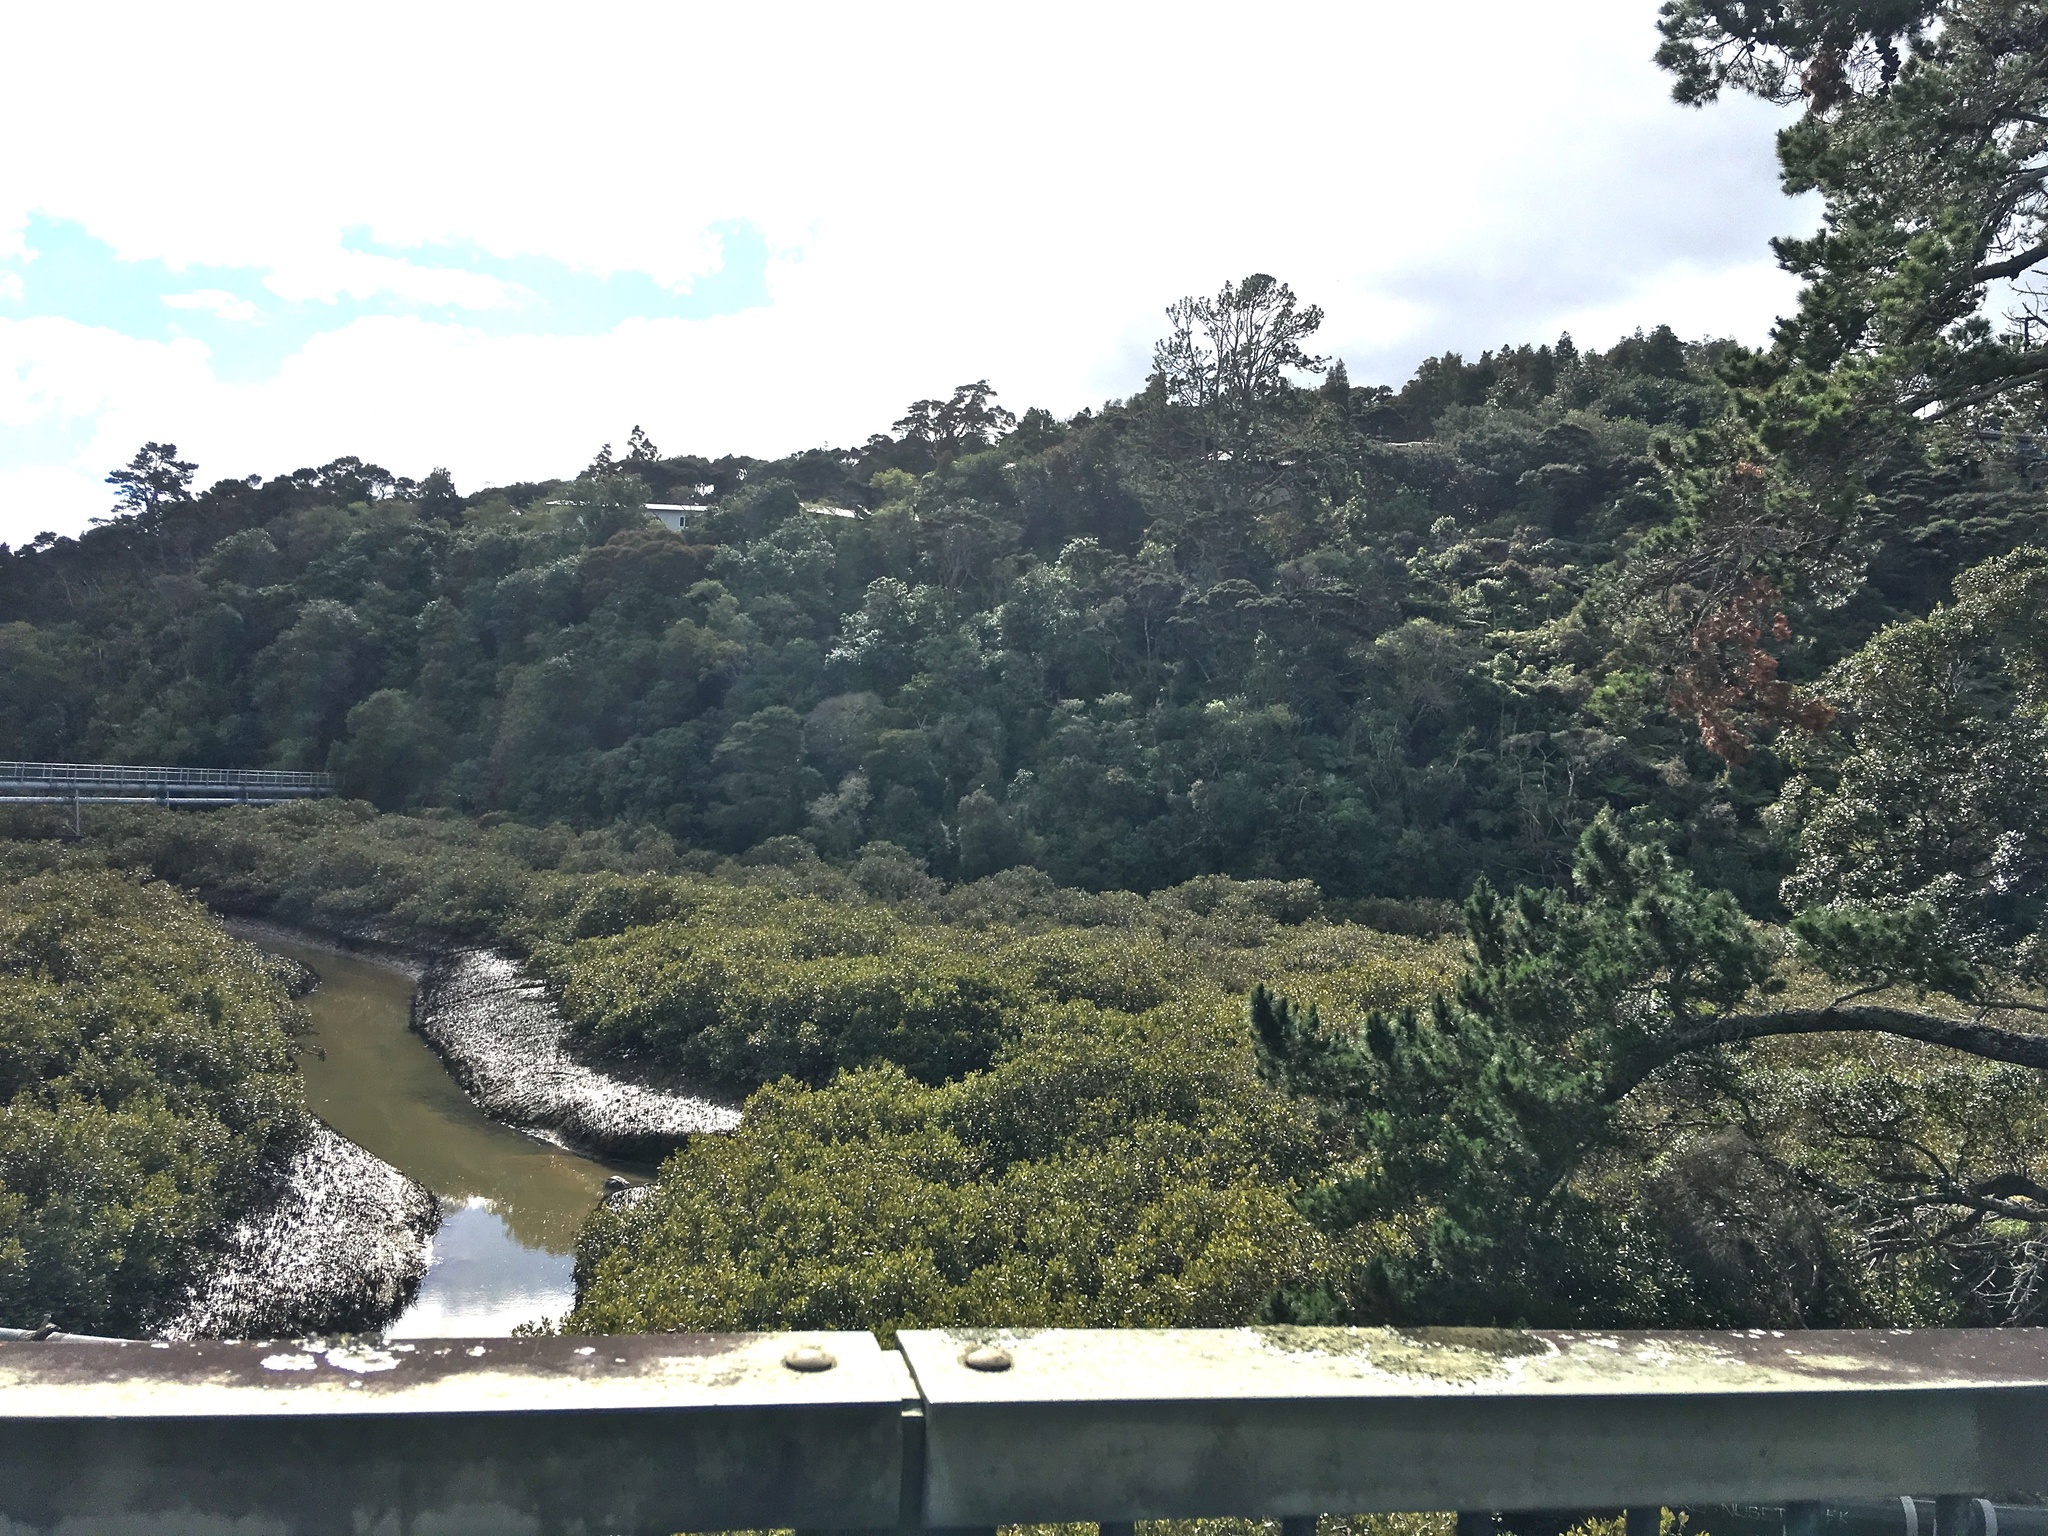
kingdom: Plantae
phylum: Tracheophyta
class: Magnoliopsida
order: Lamiales
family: Acanthaceae
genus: Avicennia
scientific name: Avicennia marina
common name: Gray mangrove
